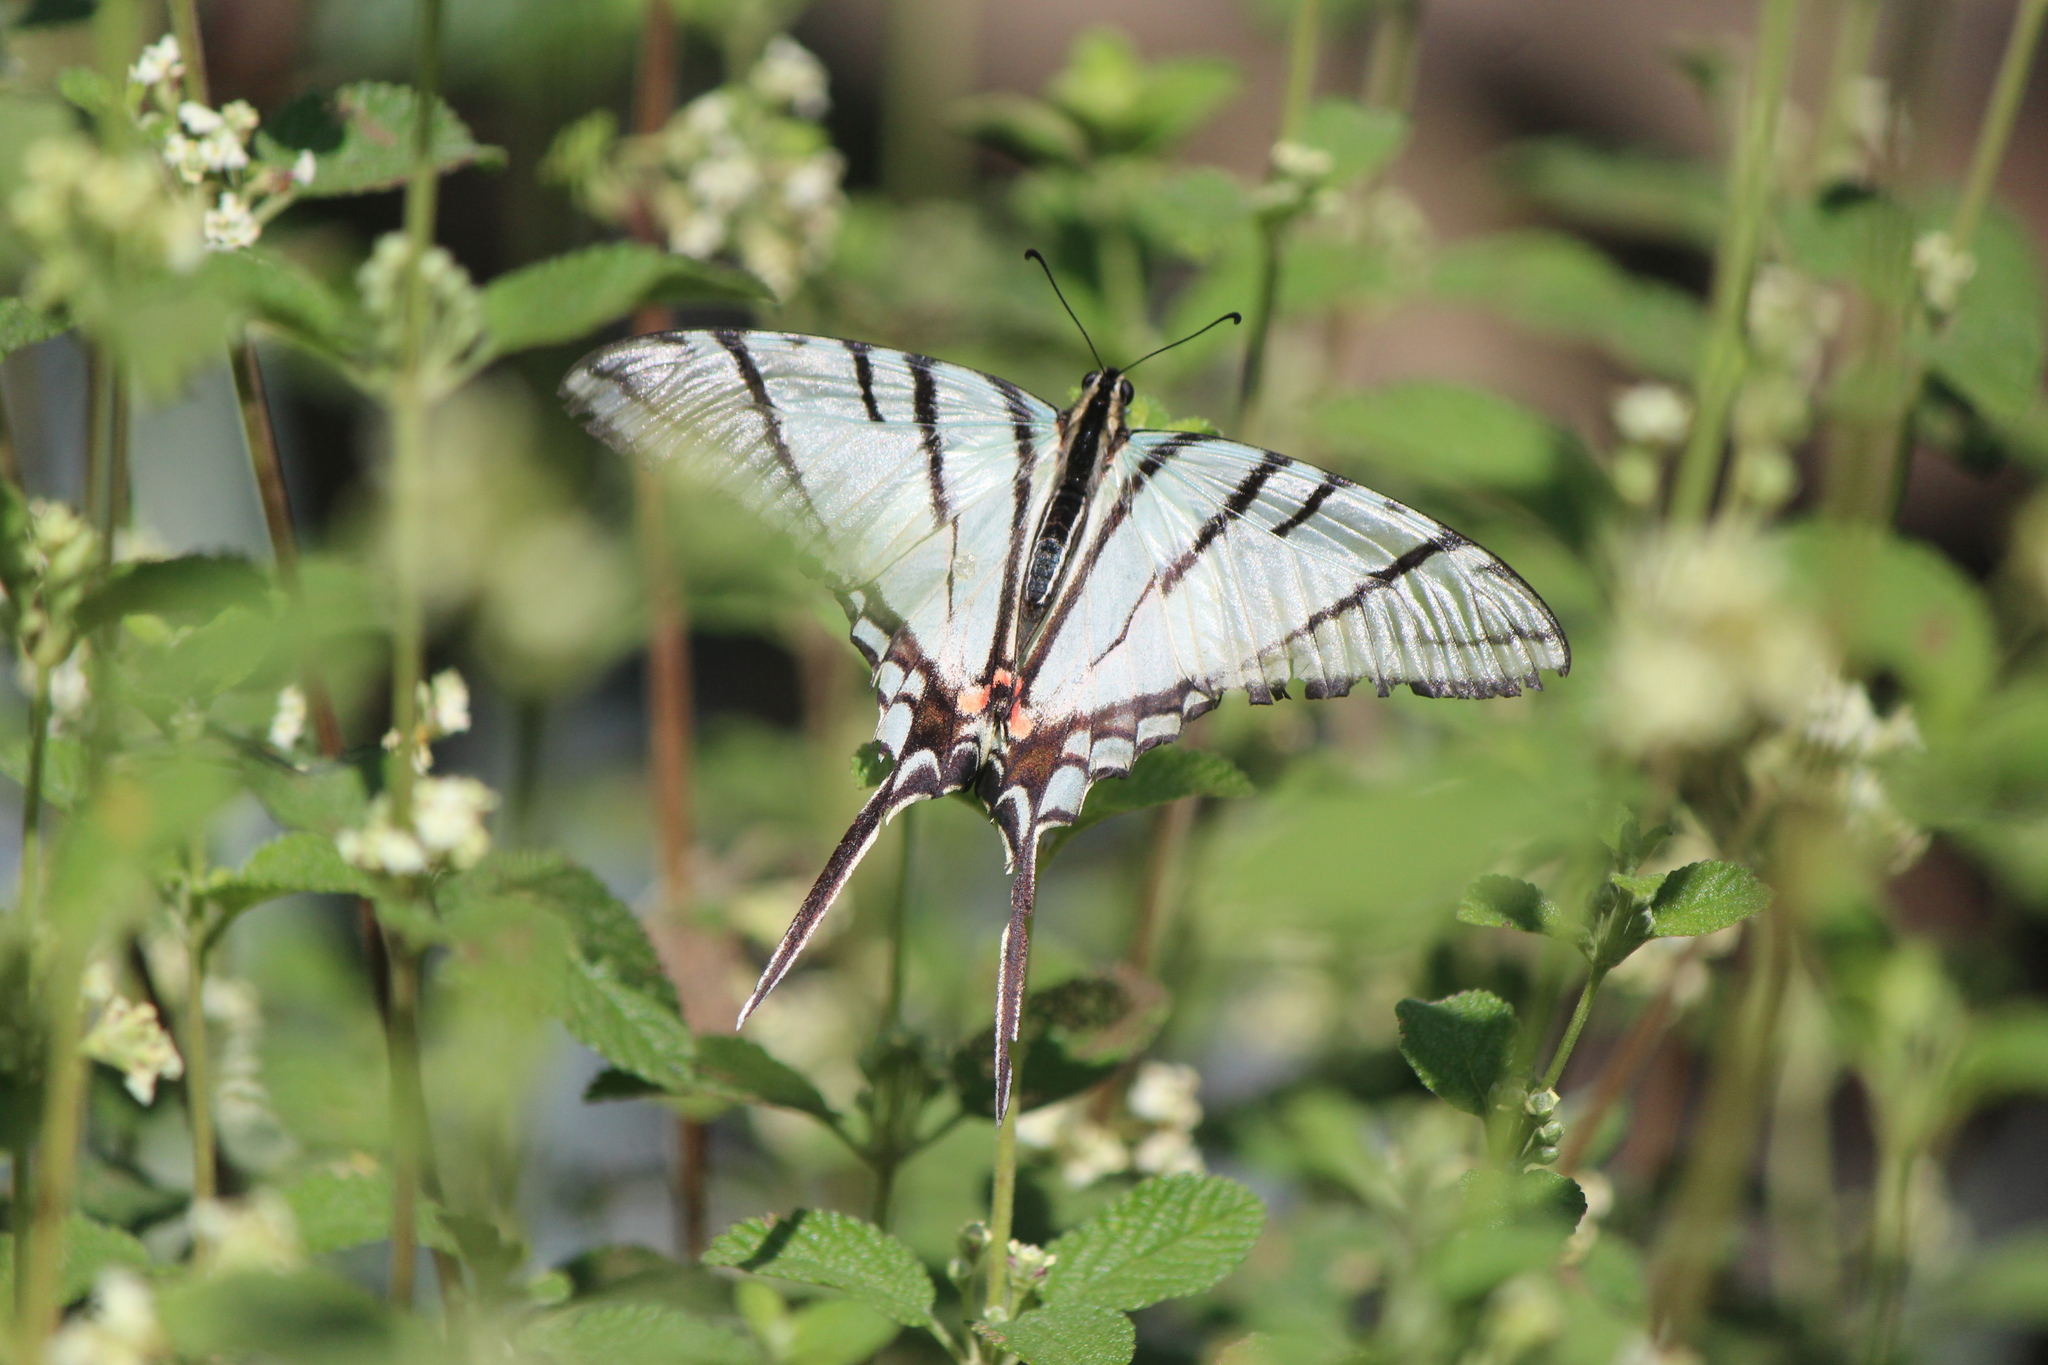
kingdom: Animalia
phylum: Arthropoda
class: Insecta
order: Lepidoptera
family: Papilionidae
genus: Protographium
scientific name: Protographium epidaus
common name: Mexican kite swallowtail
